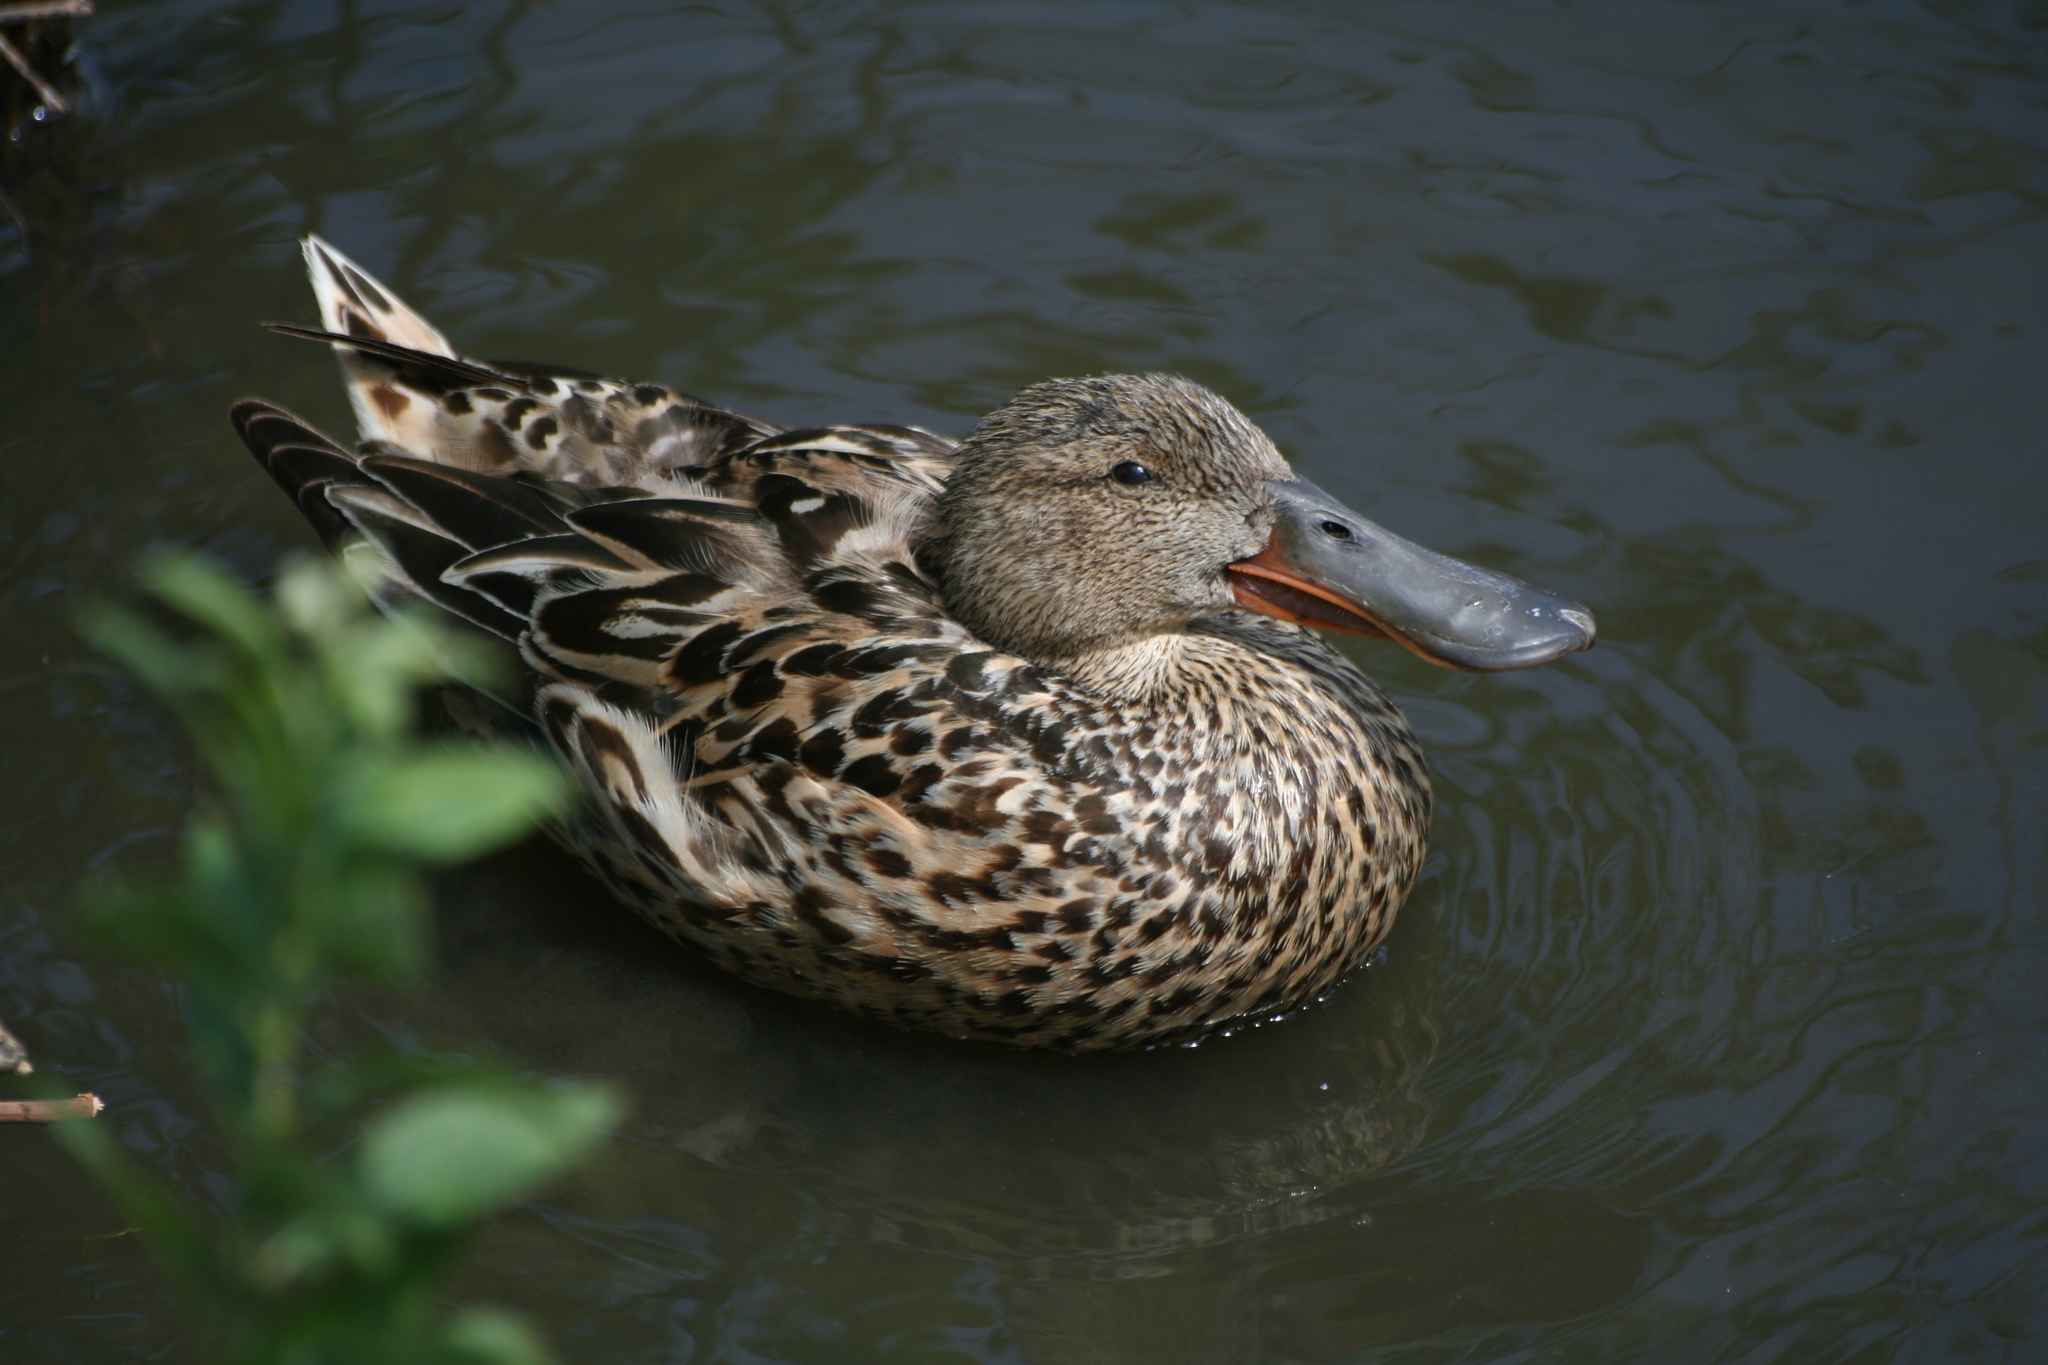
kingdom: Animalia
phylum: Chordata
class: Aves
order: Anseriformes
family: Anatidae
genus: Spatula
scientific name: Spatula clypeata
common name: Northern shoveler
